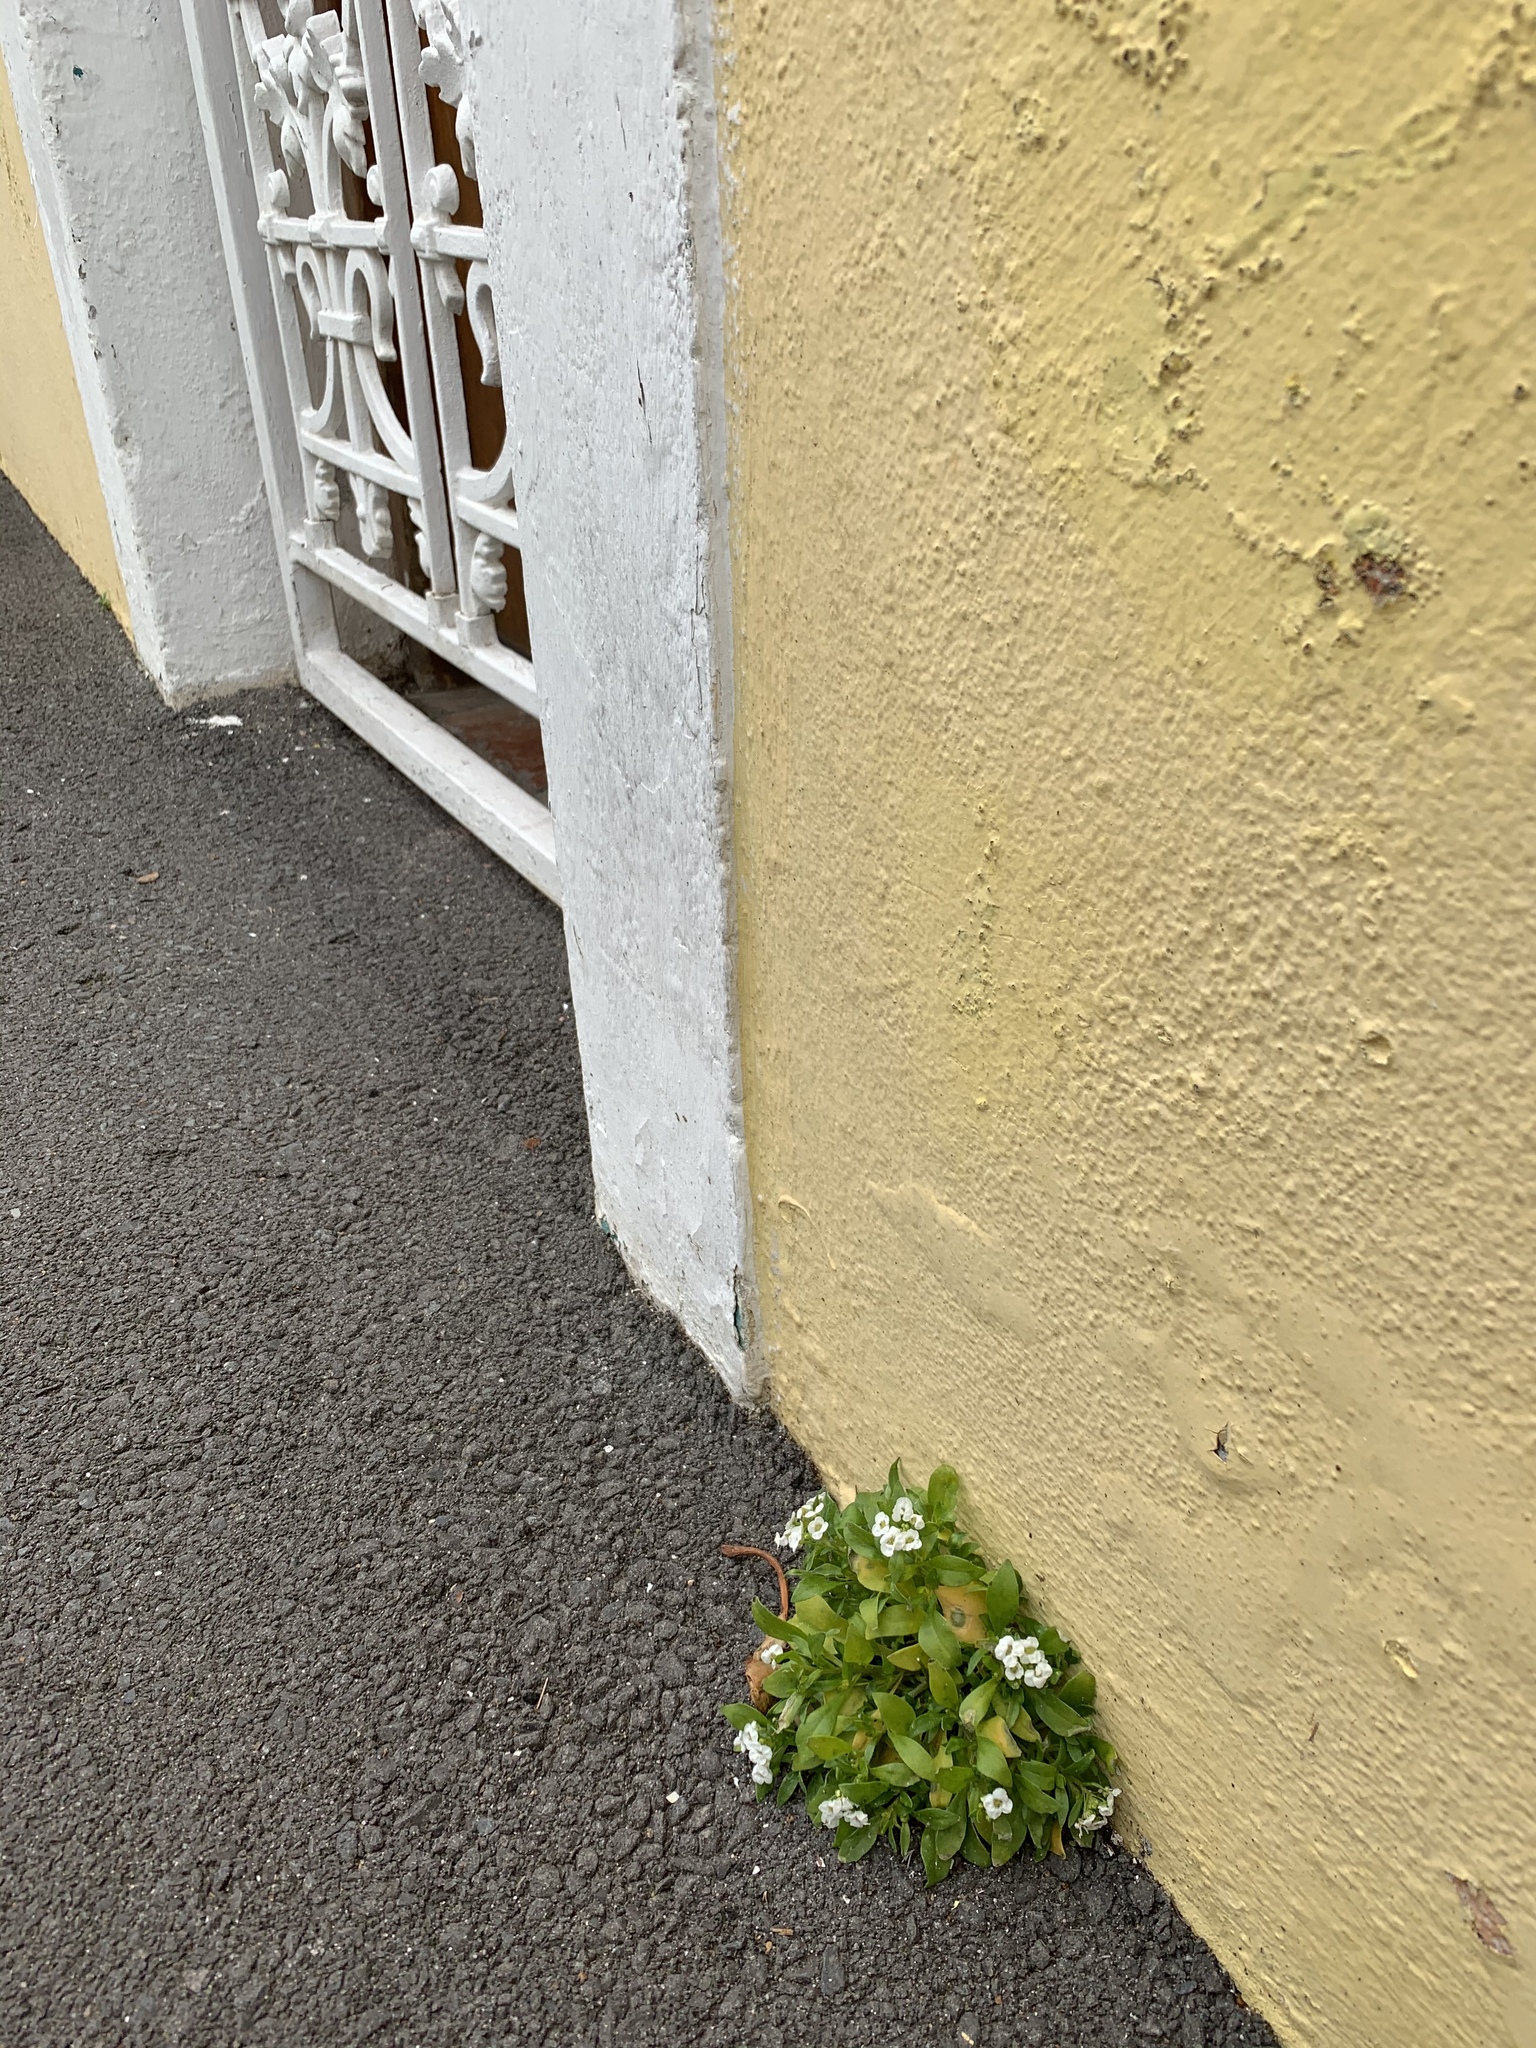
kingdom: Plantae
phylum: Tracheophyta
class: Magnoliopsida
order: Brassicales
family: Brassicaceae
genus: Lobularia
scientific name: Lobularia maritima
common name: Sweet alison
